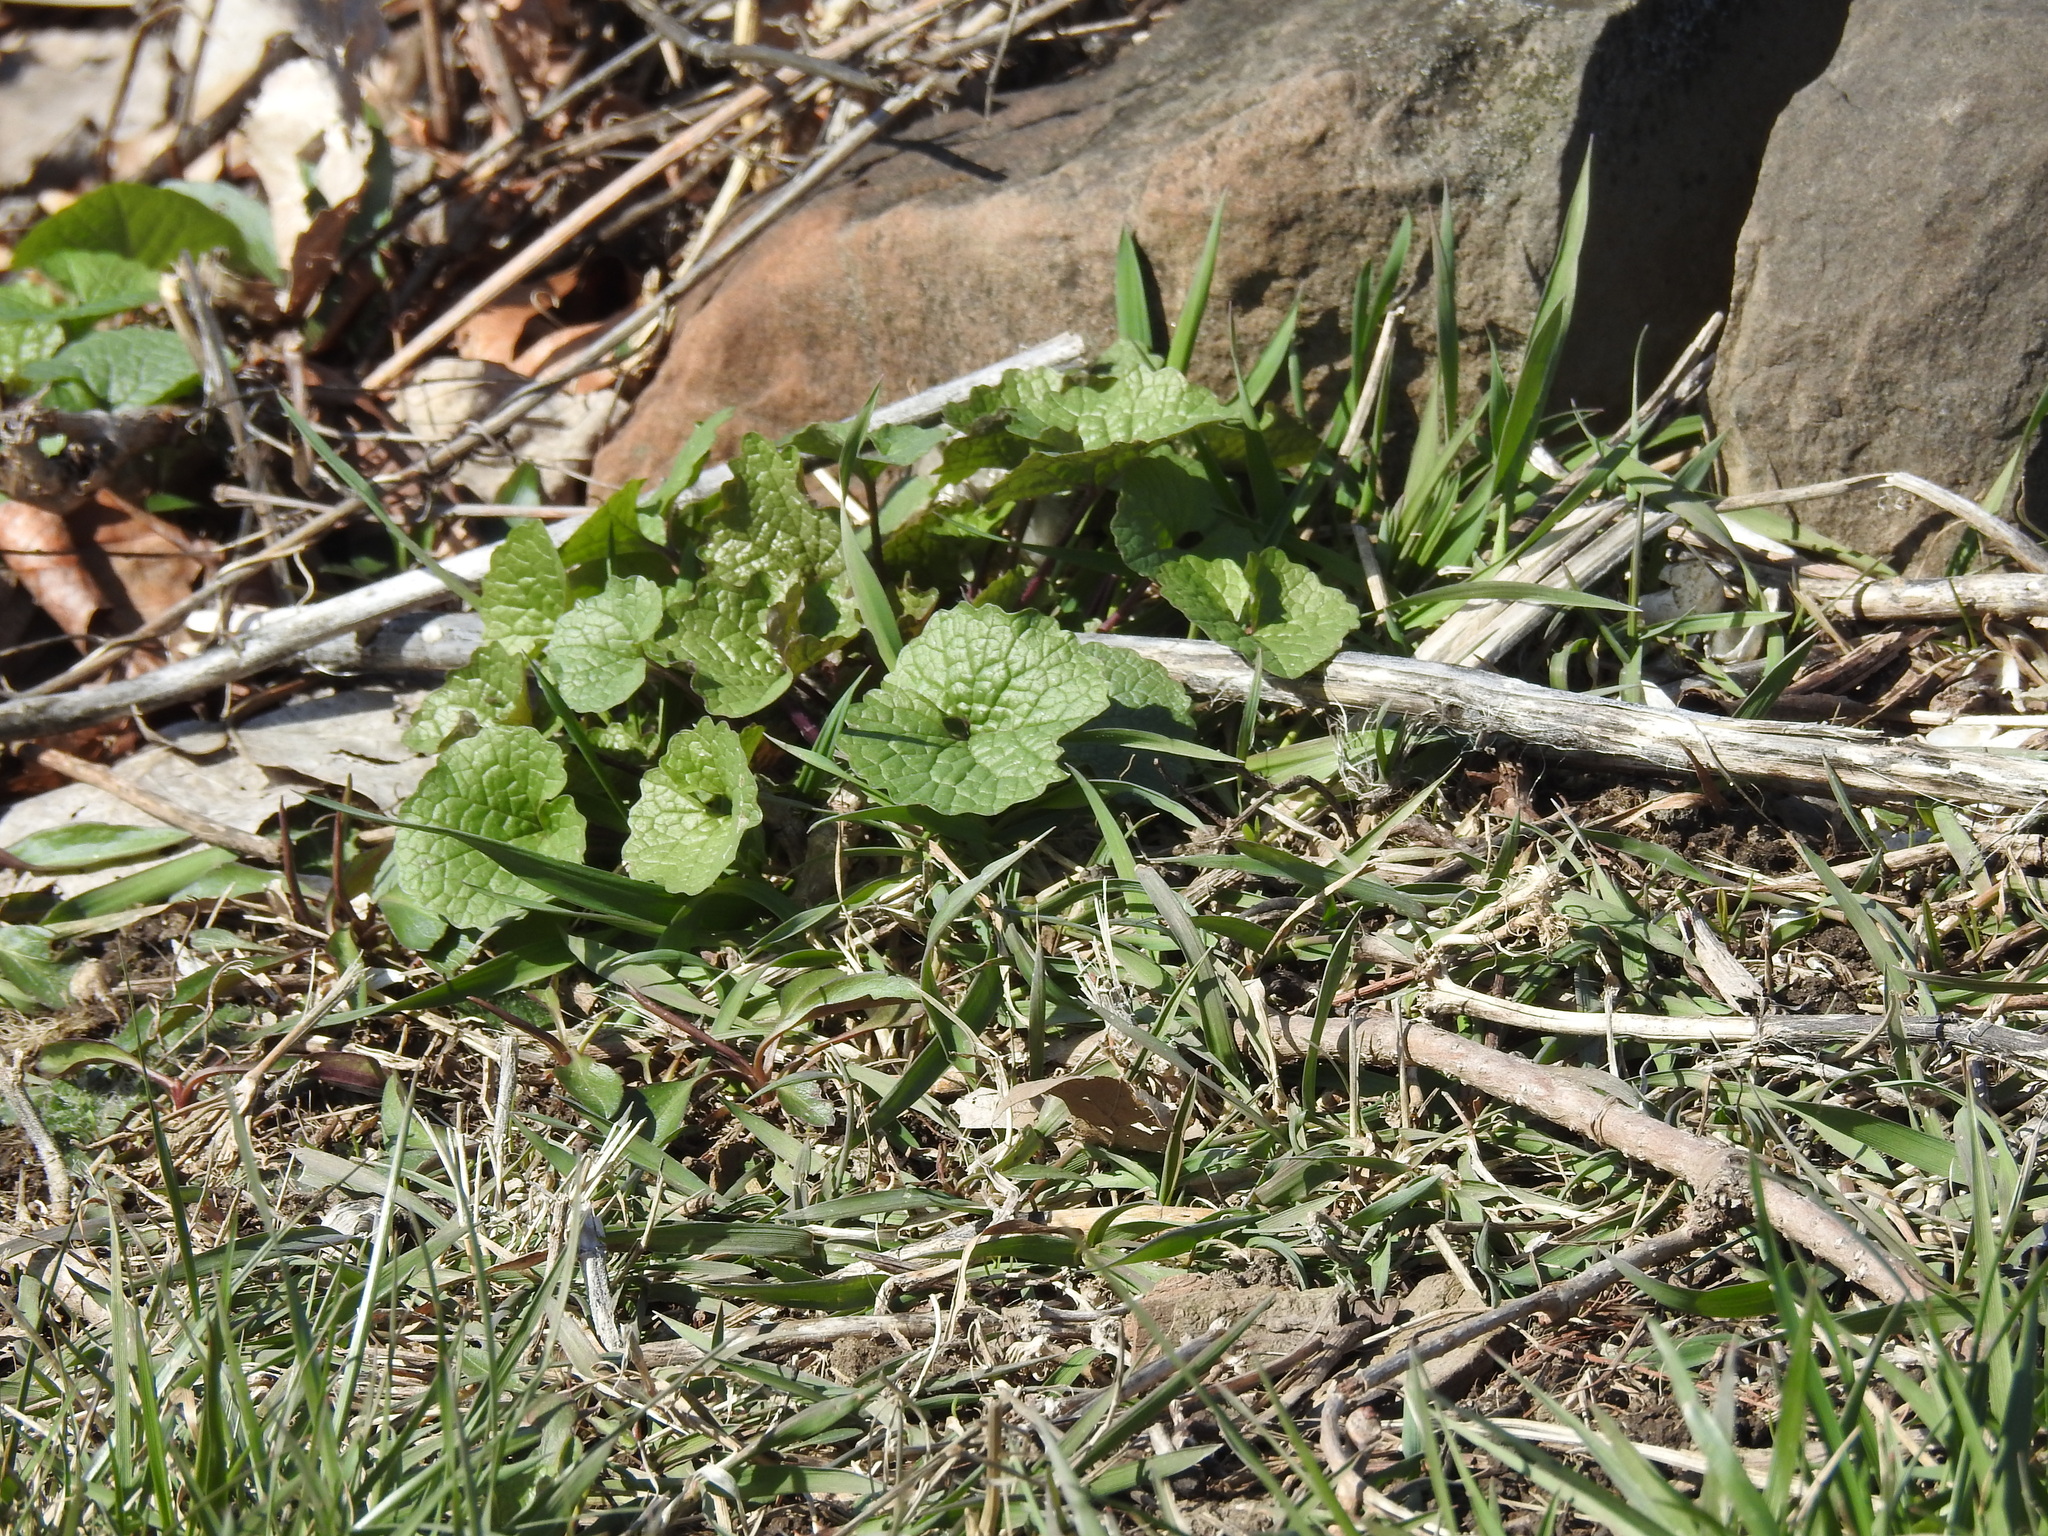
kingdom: Plantae
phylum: Tracheophyta
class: Magnoliopsida
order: Brassicales
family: Brassicaceae
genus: Alliaria
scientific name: Alliaria petiolata
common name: Garlic mustard
